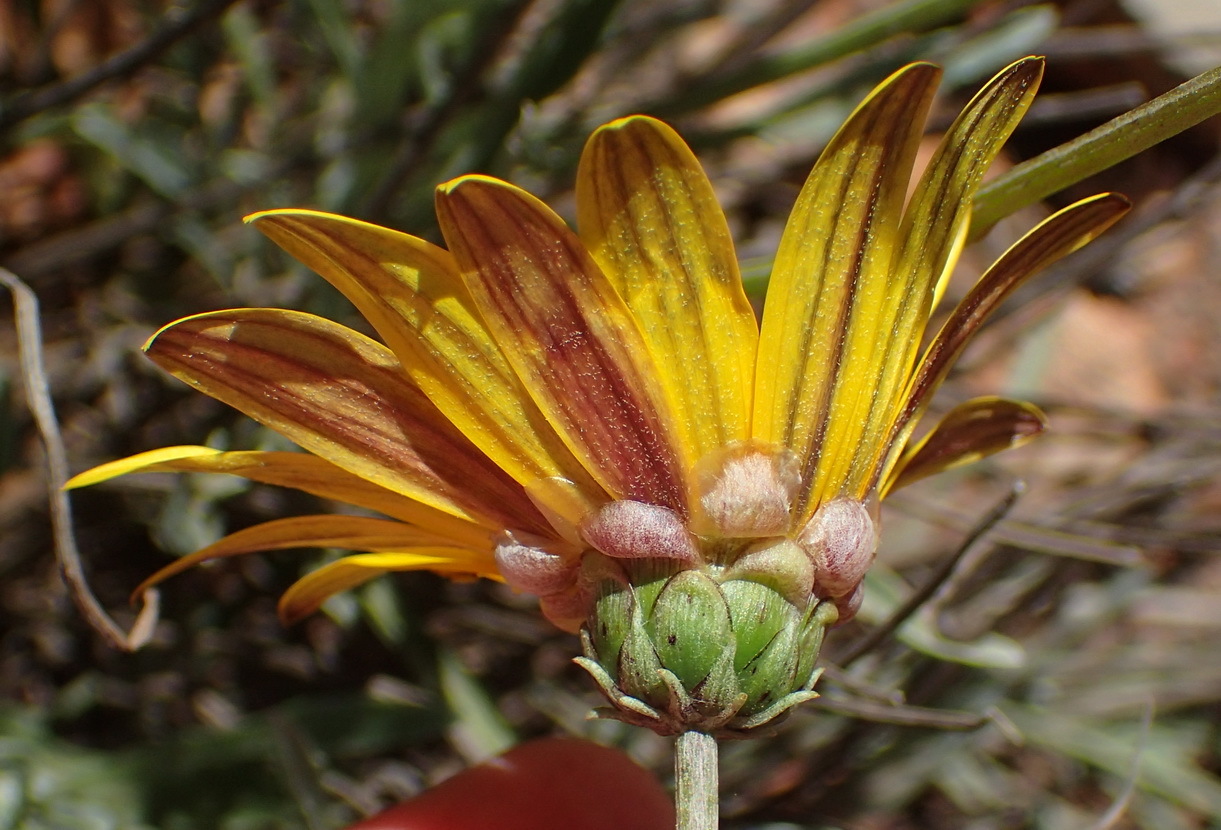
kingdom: Plantae
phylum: Tracheophyta
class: Magnoliopsida
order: Asterales
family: Asteraceae
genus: Arctotis
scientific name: Arctotis lanceolata
